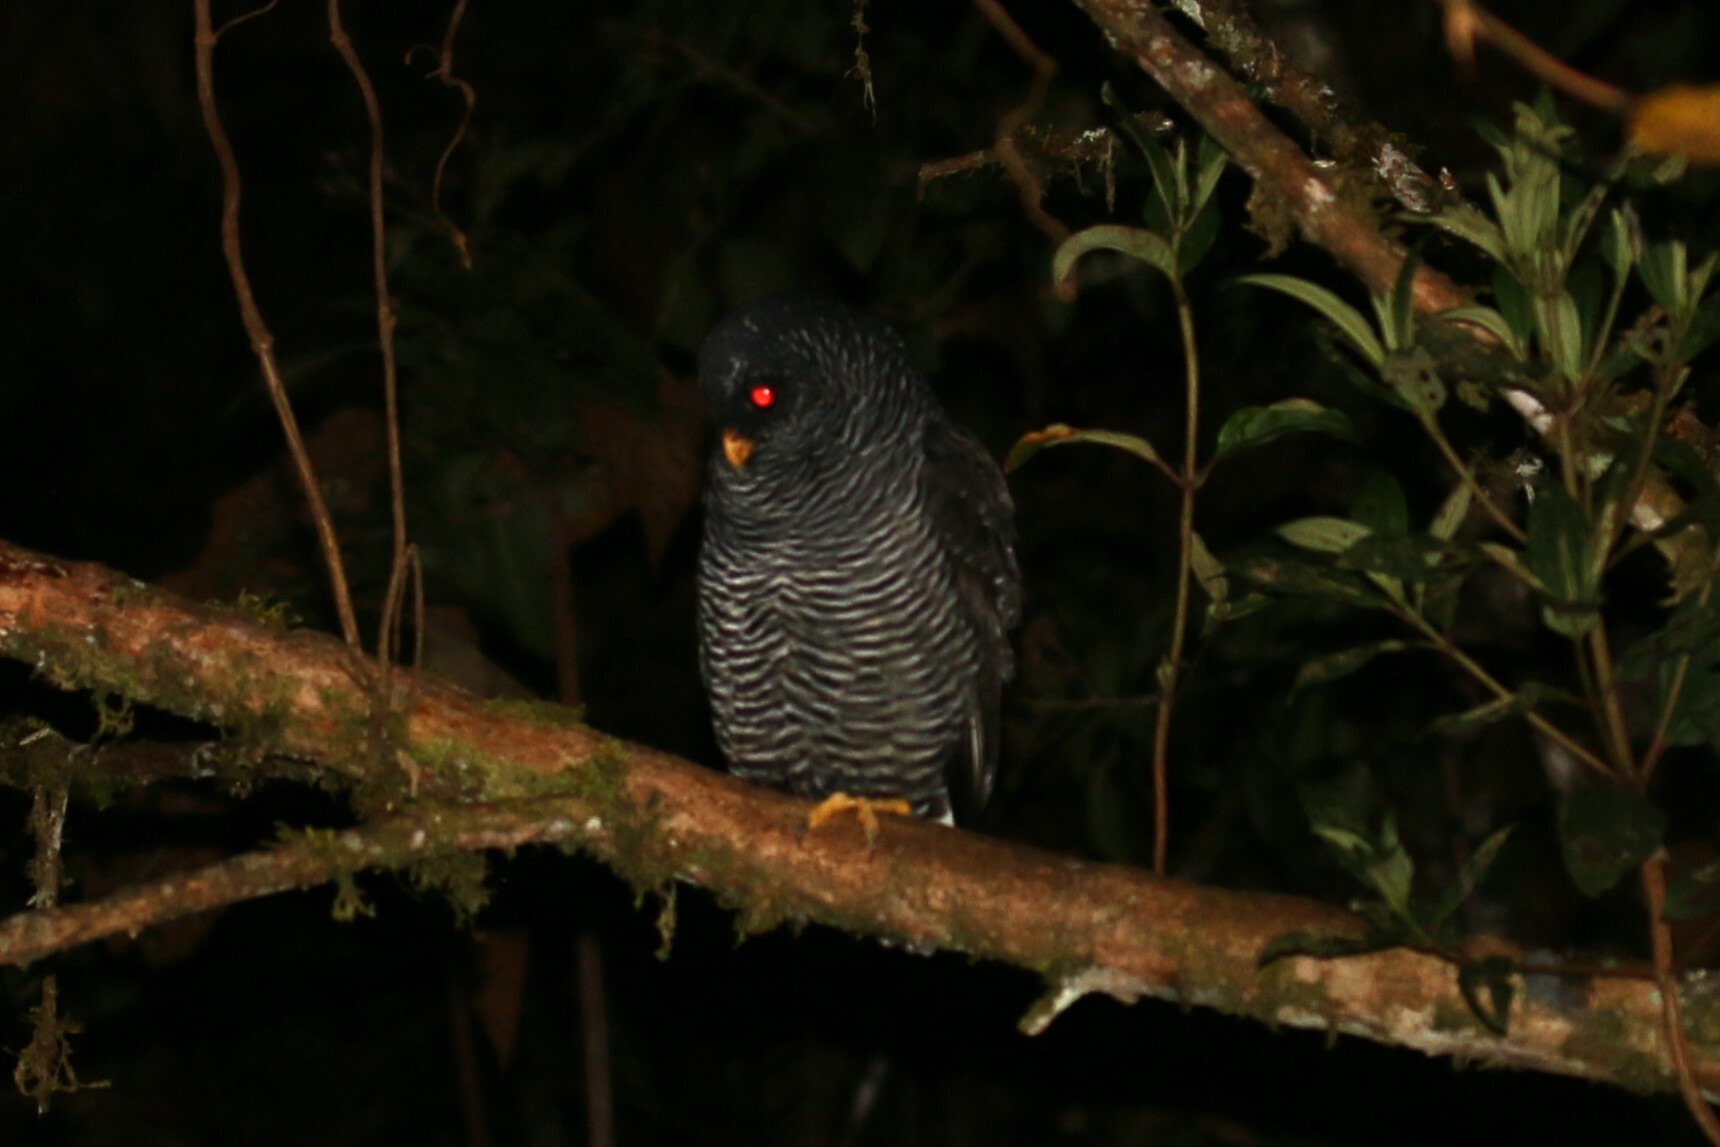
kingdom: Animalia
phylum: Chordata
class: Aves
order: Strigiformes
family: Strigidae
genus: Strix
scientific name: Strix huhula
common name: Black-banded owl
